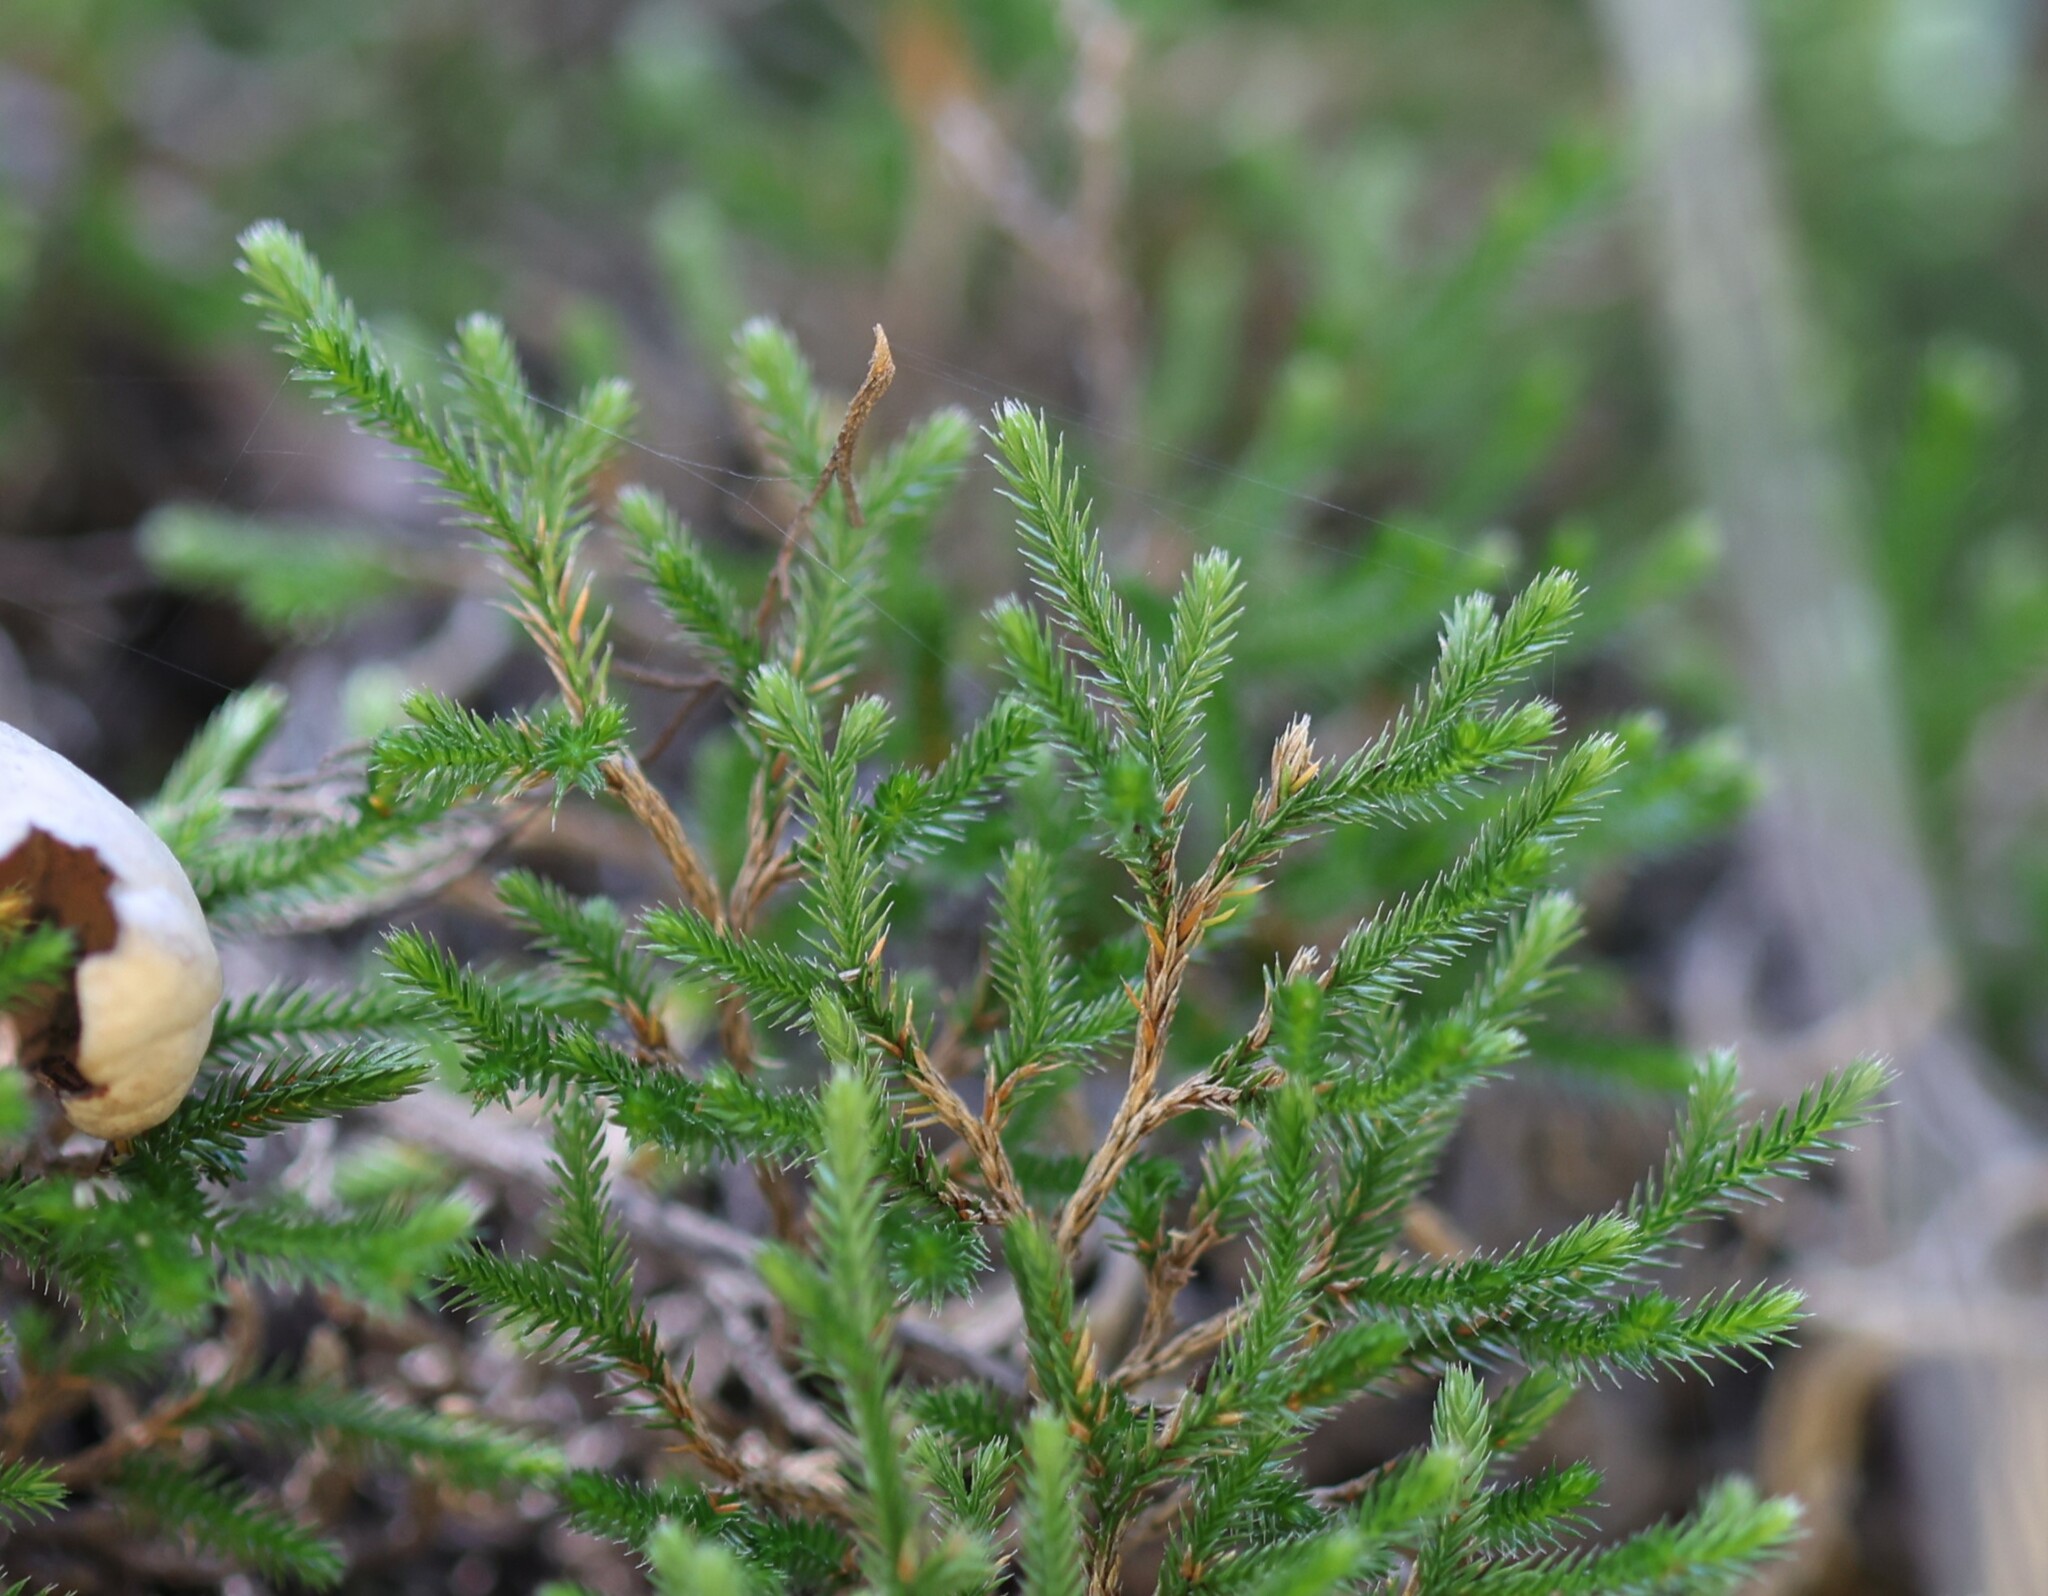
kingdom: Plantae
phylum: Tracheophyta
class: Lycopodiopsida
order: Selaginellales
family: Selaginellaceae
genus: Selaginella
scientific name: Selaginella bigelovii
